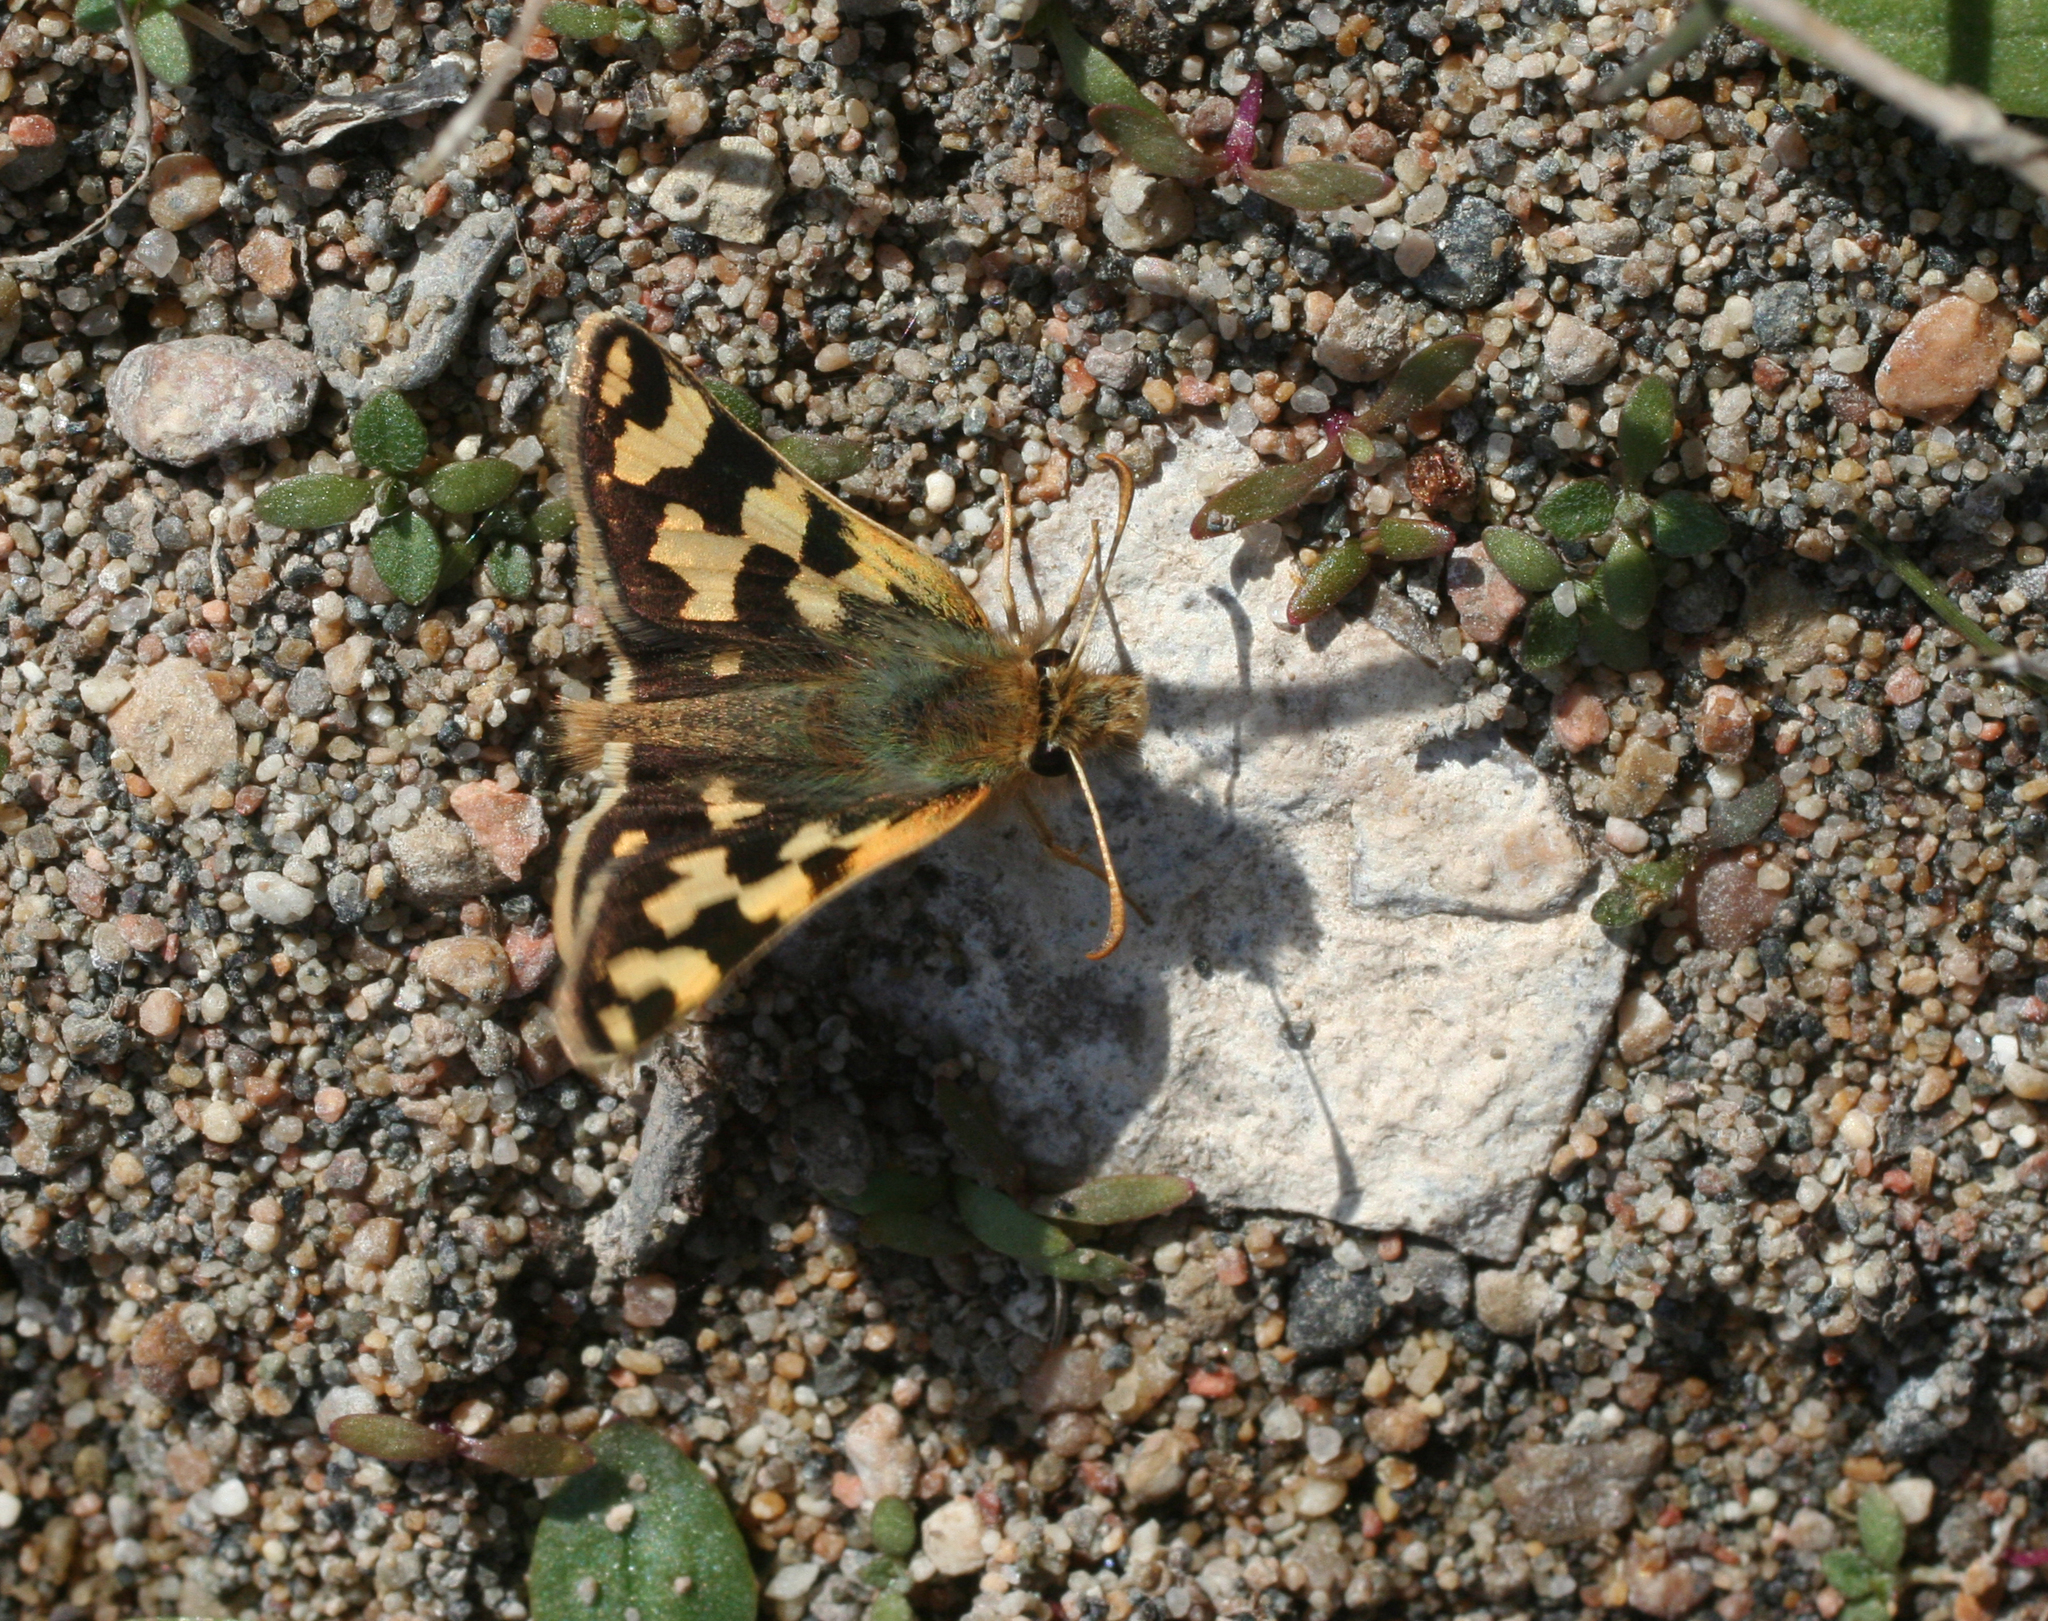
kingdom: Animalia
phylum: Arthropoda
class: Insecta
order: Lepidoptera
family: Hesperiidae
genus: Carterocephalus
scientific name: Carterocephalus argyrostigma
